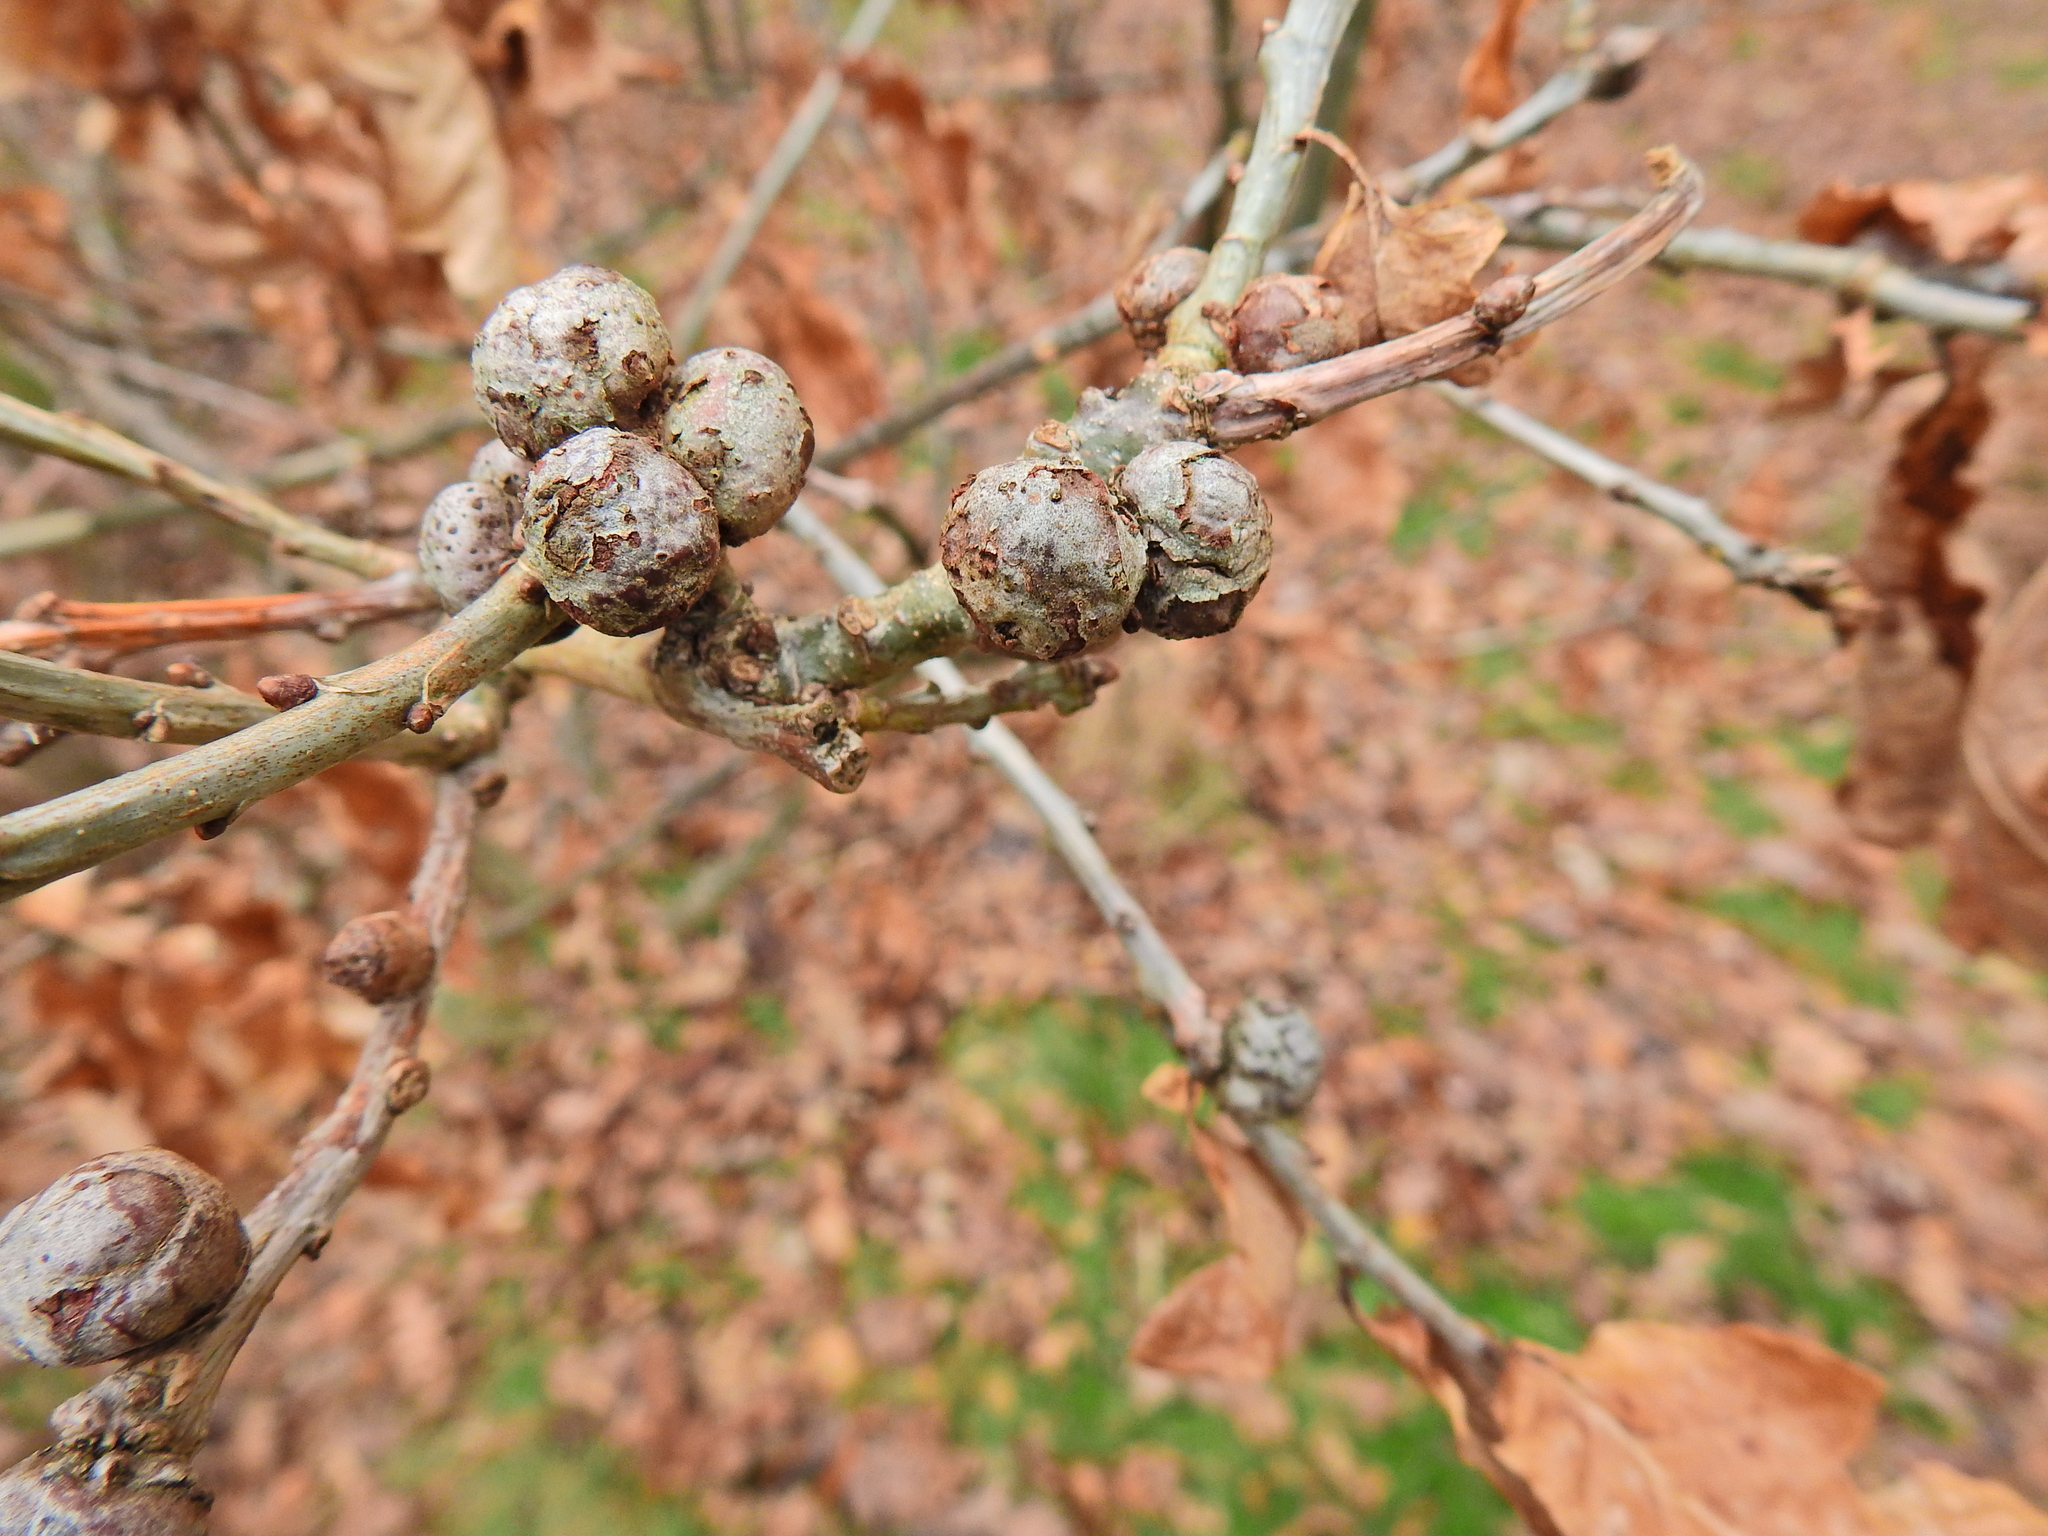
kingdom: Animalia
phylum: Arthropoda
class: Insecta
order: Hymenoptera
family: Cynipidae
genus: Andricus
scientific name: Andricus lignicolus
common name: Cola-nut gall
